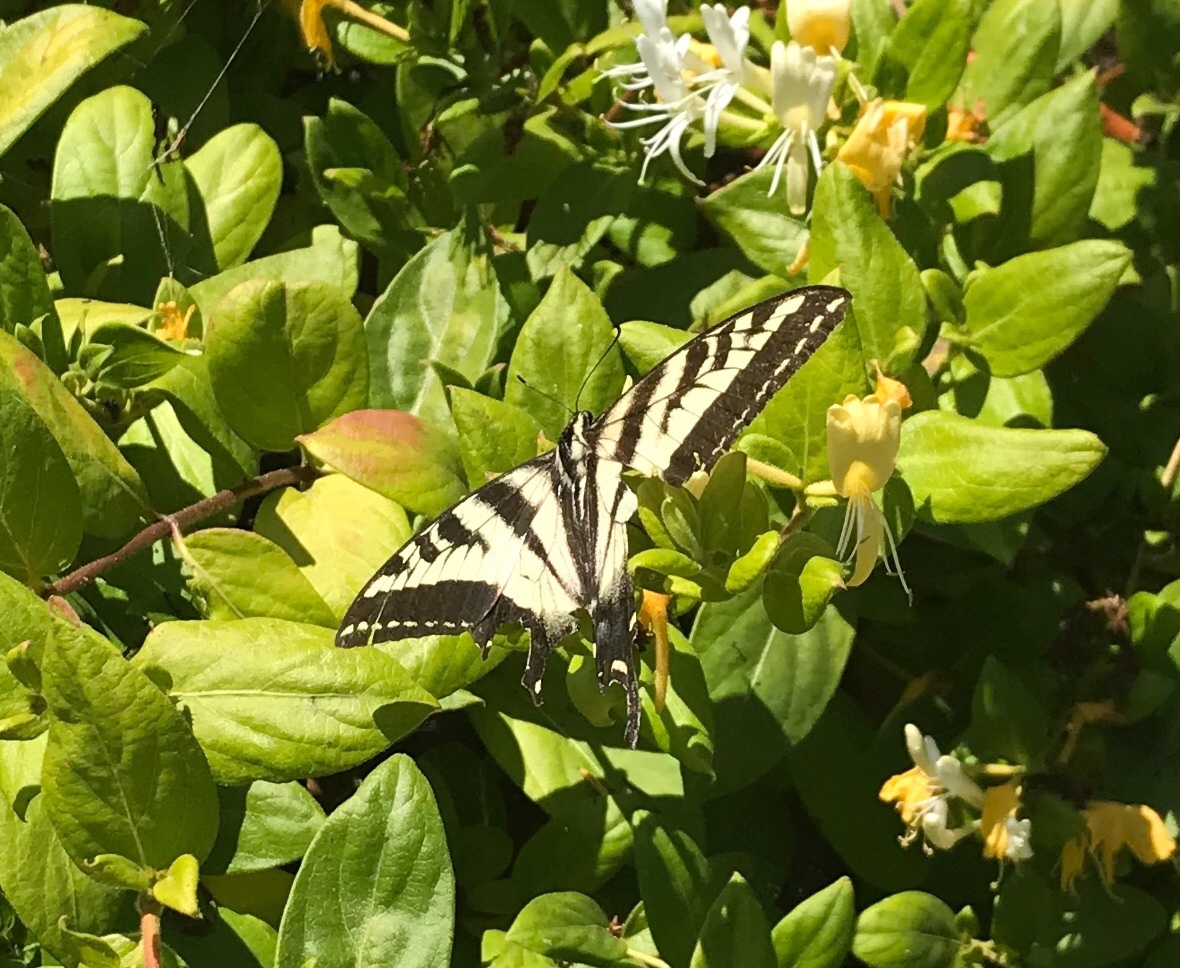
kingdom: Animalia
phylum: Arthropoda
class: Insecta
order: Lepidoptera
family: Papilionidae
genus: Papilio
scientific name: Papilio rutulus
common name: Western tiger swallowtail
